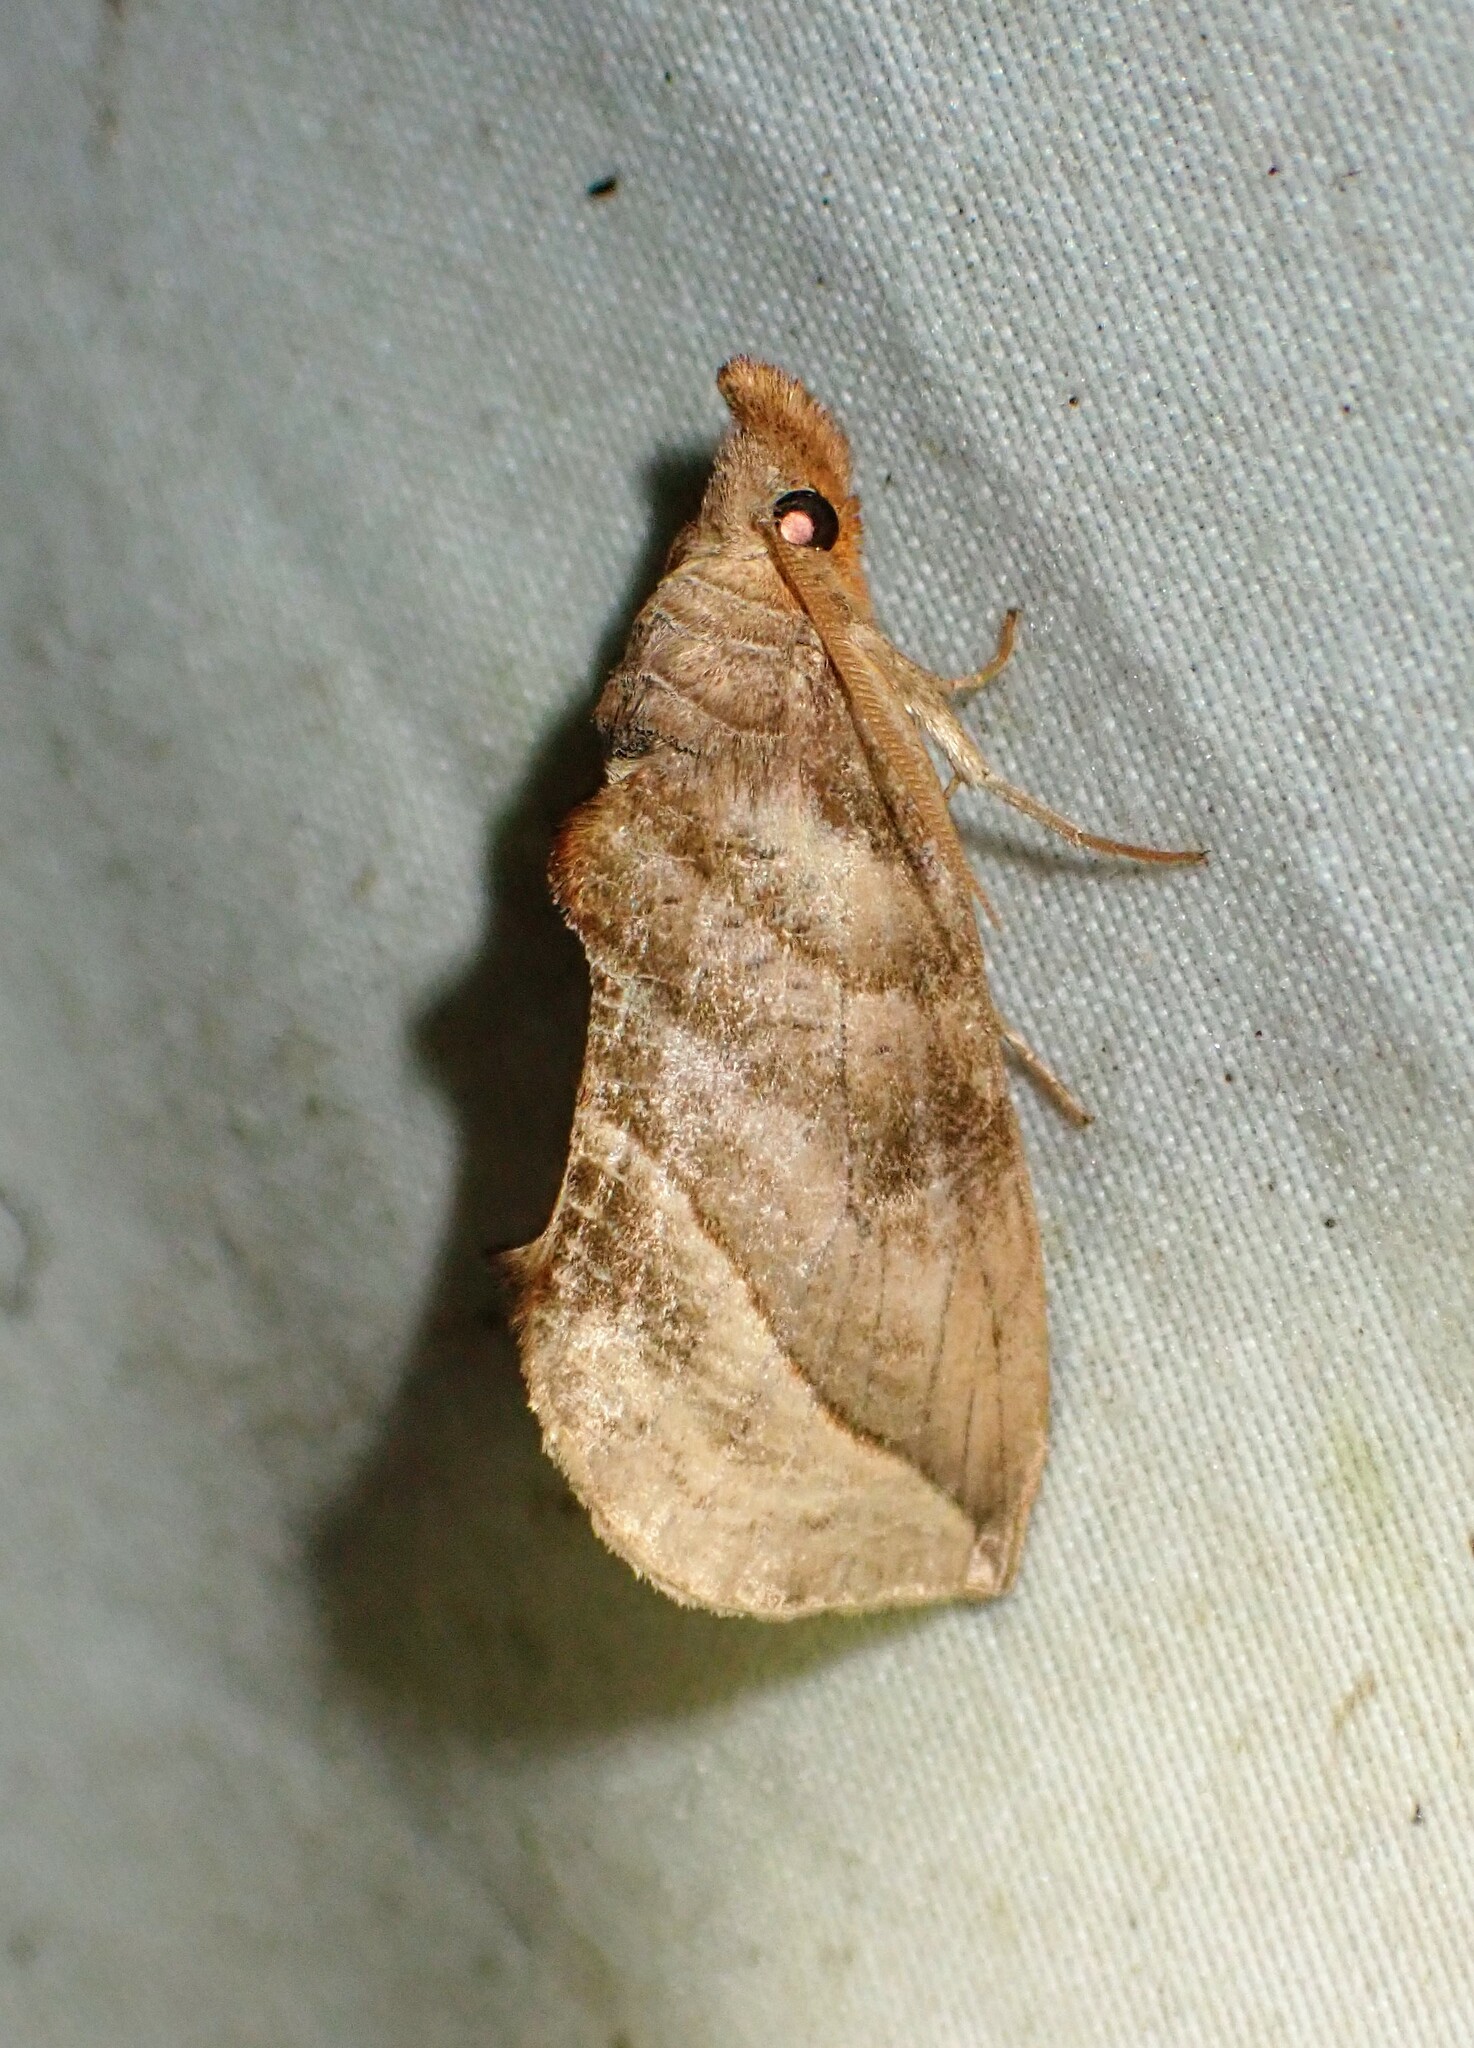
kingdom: Animalia
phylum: Arthropoda
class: Insecta
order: Lepidoptera
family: Erebidae
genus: Calyptra
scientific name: Calyptra canadensis
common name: Canadian owlet
